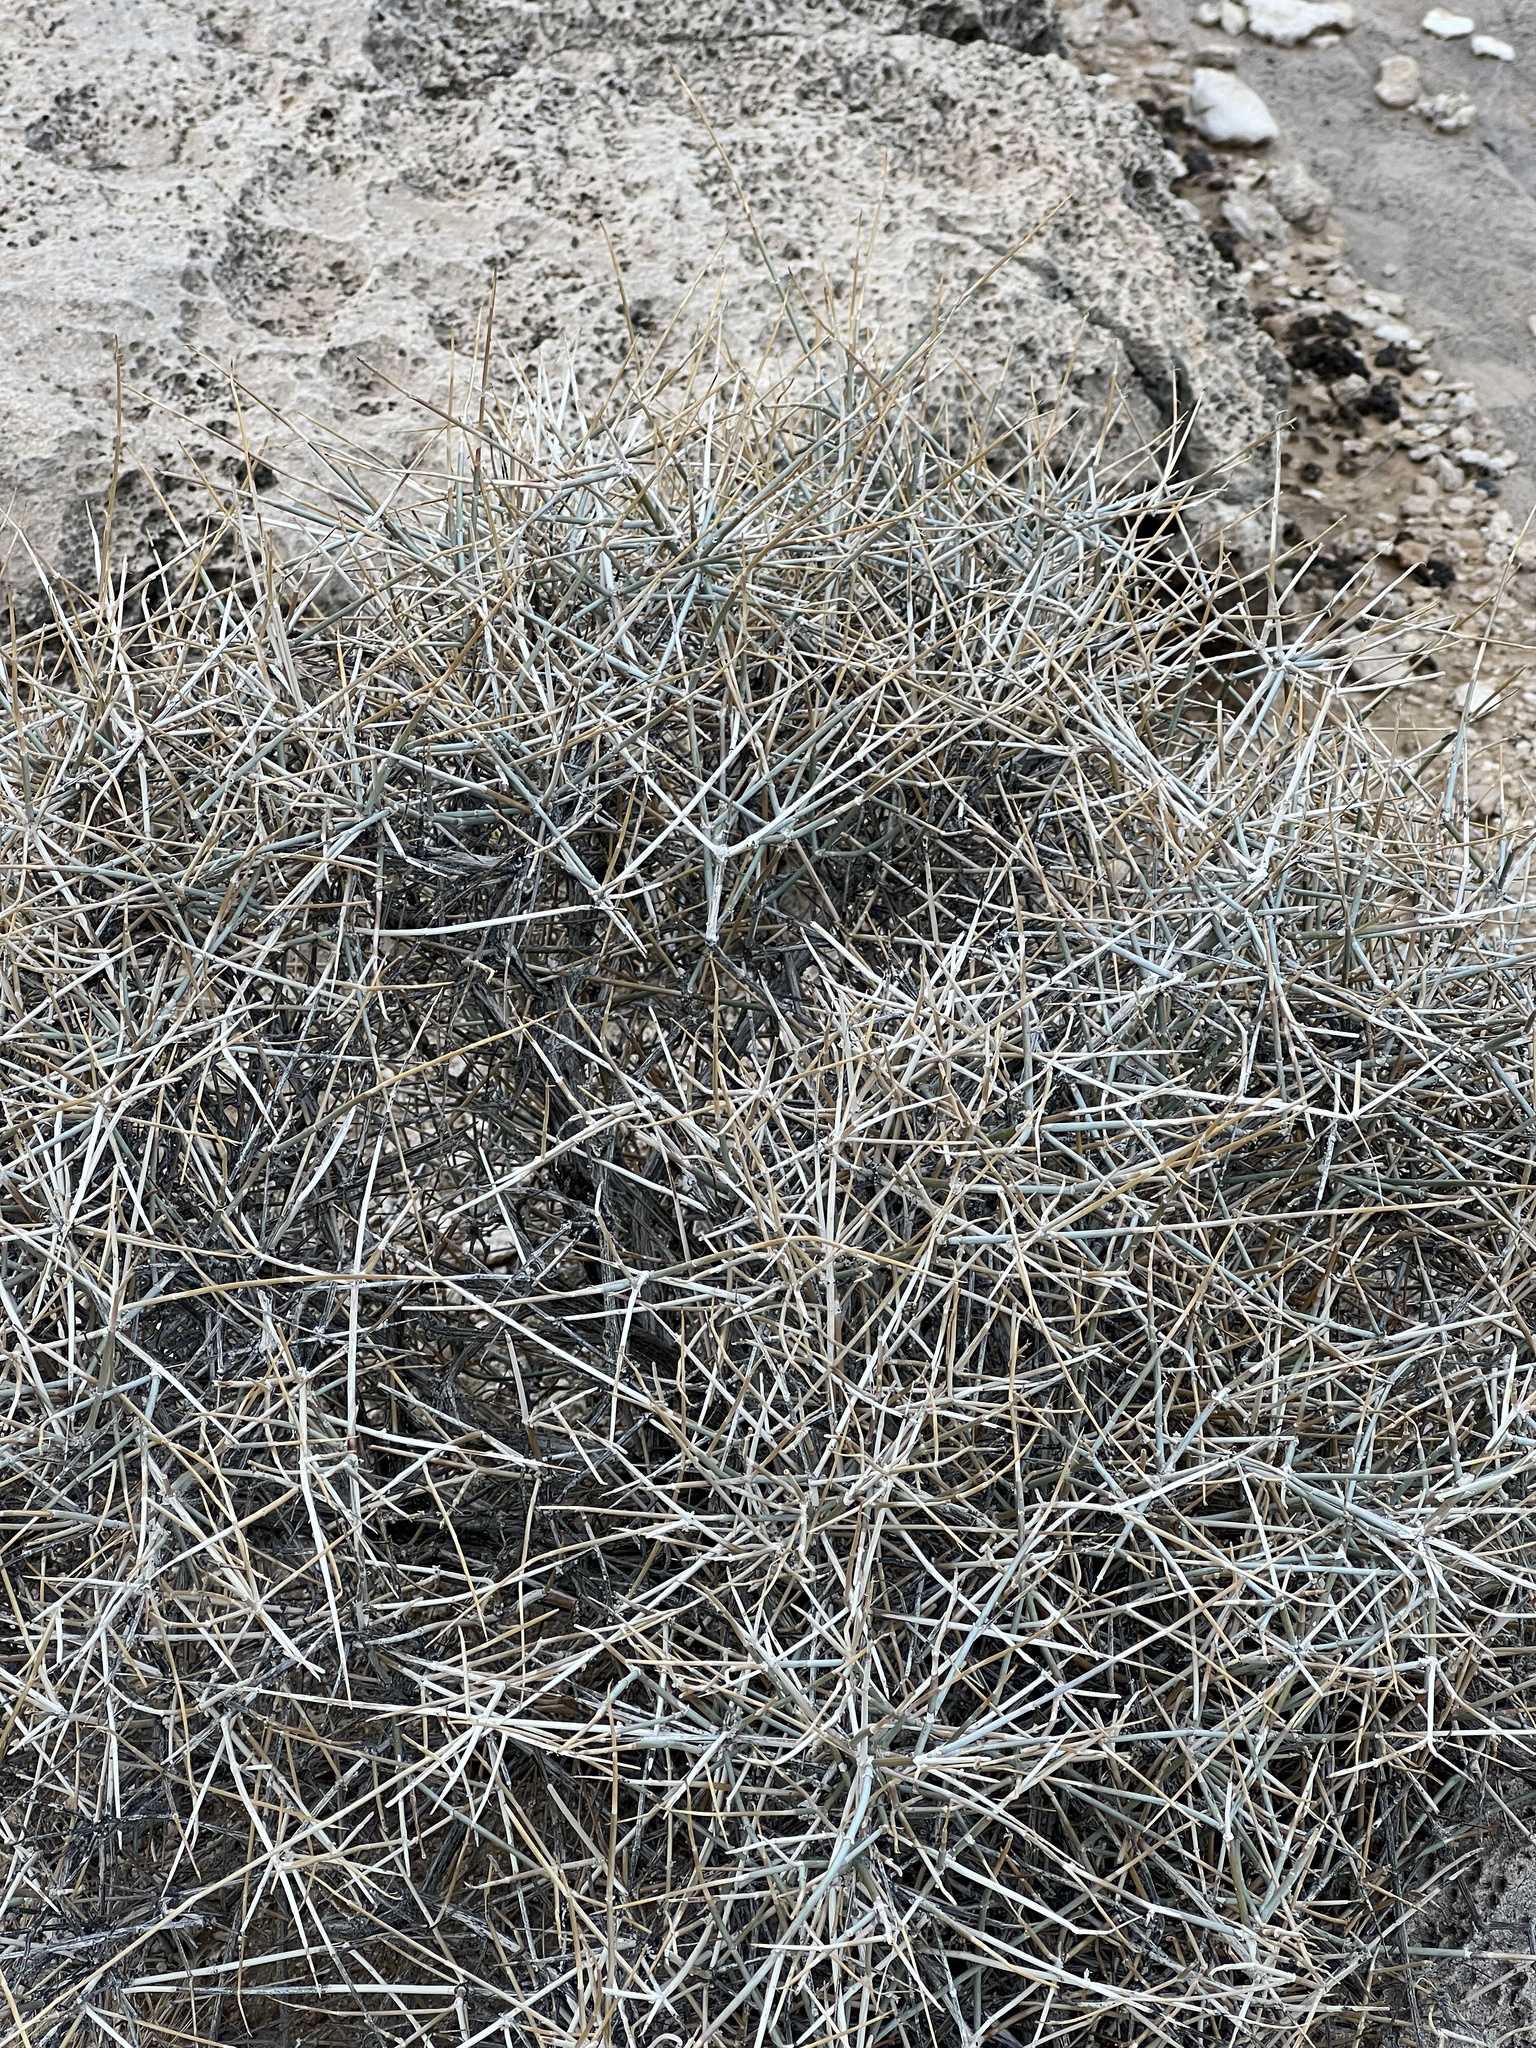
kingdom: Plantae
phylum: Tracheophyta
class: Gnetopsida
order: Ephedrales
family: Ephedraceae
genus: Ephedra
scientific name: Ephedra nevadensis
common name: Gray ephedra
